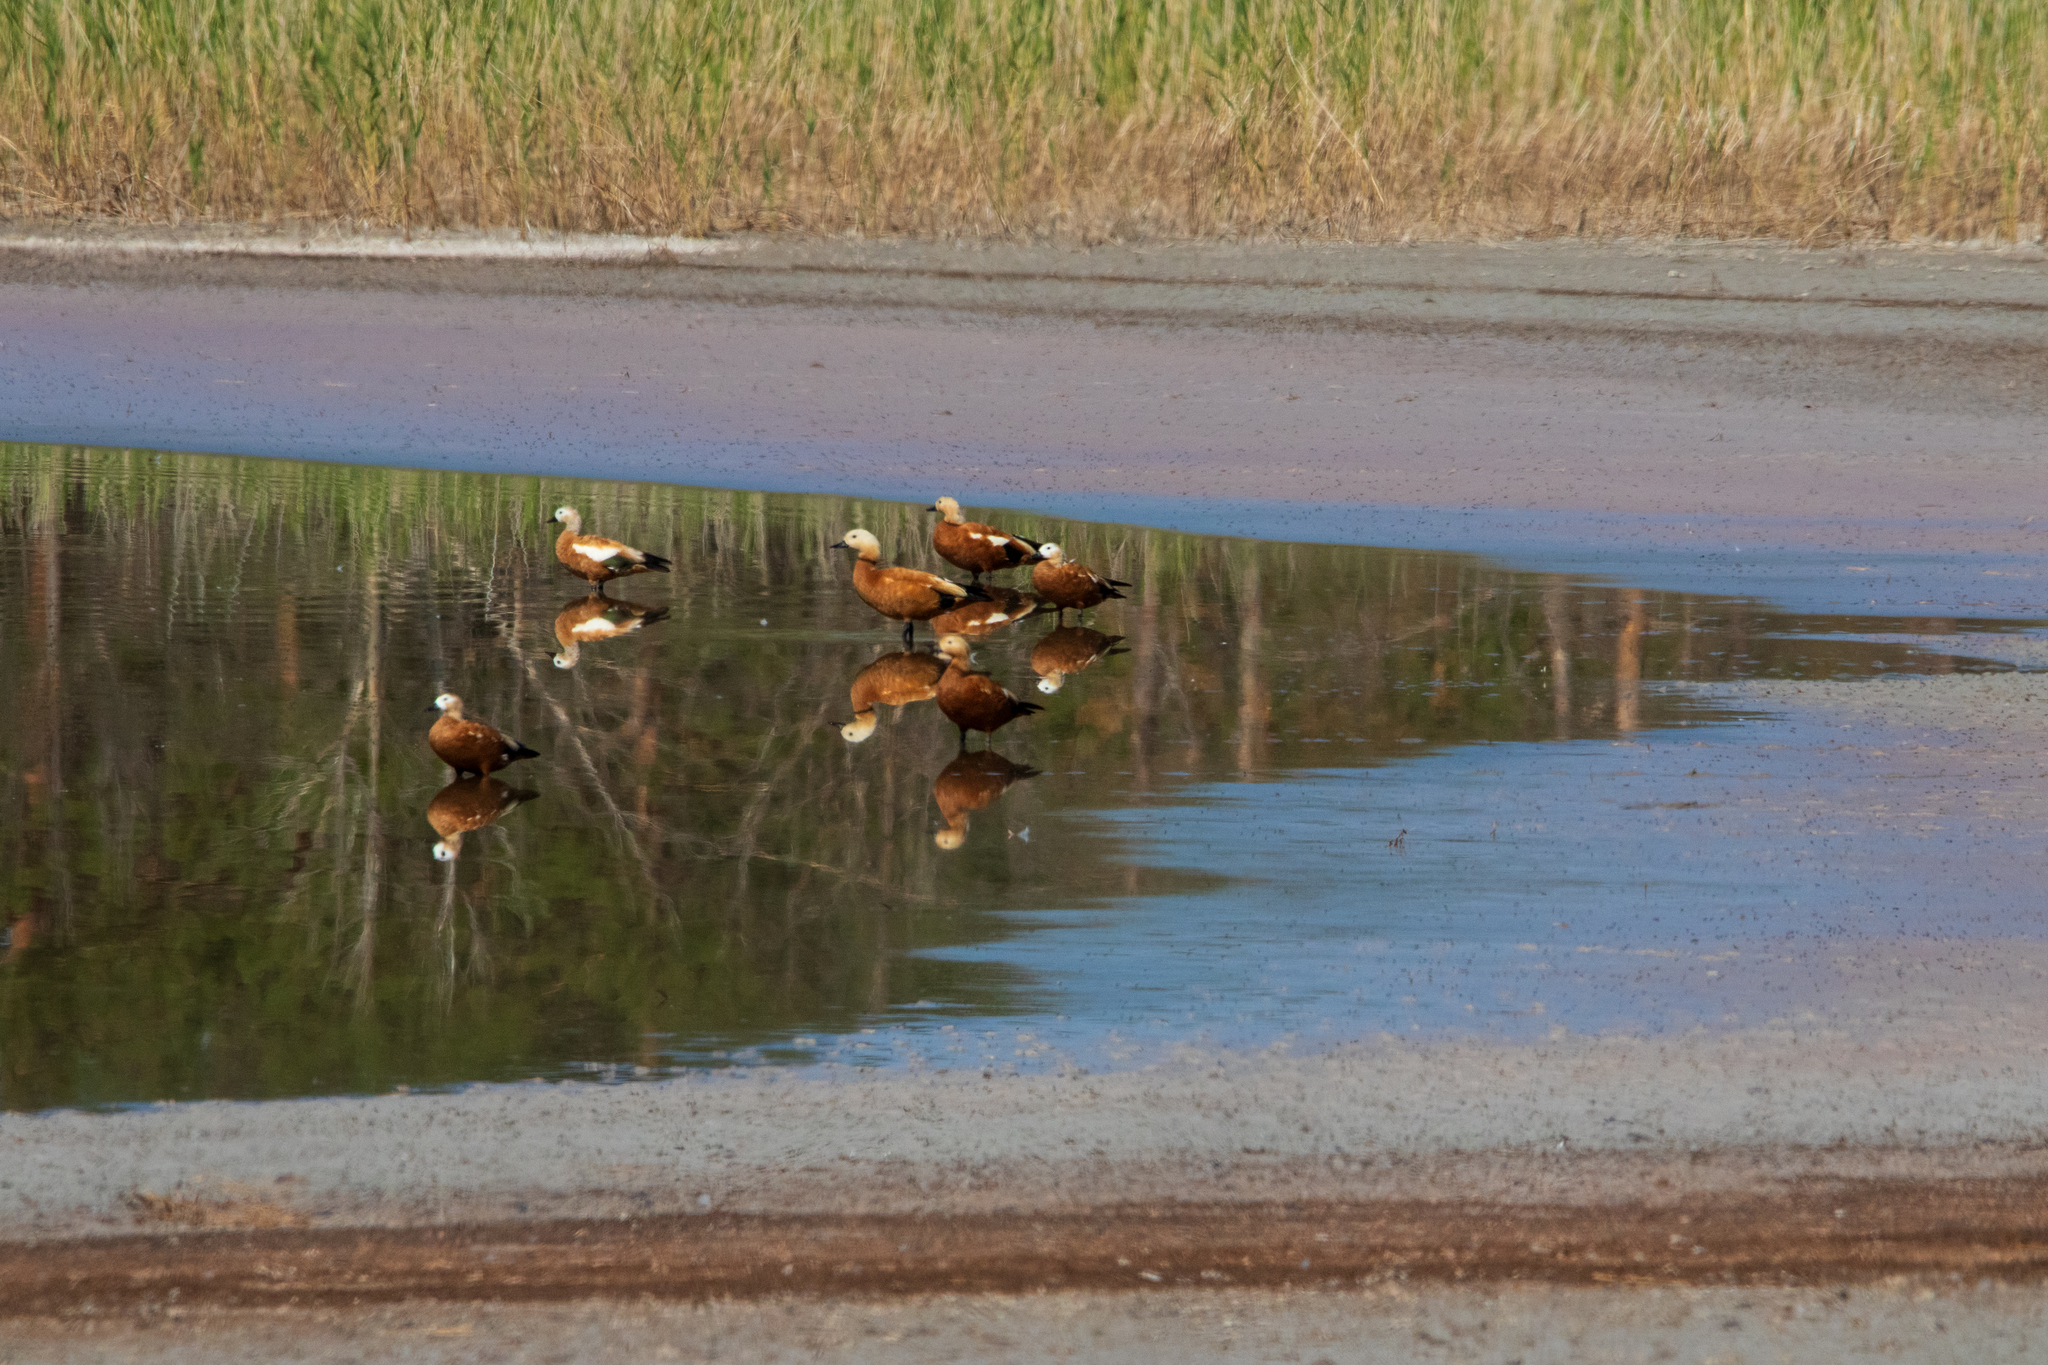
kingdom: Animalia
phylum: Chordata
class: Aves
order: Anseriformes
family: Anatidae
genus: Tadorna
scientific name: Tadorna ferruginea
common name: Ruddy shelduck
